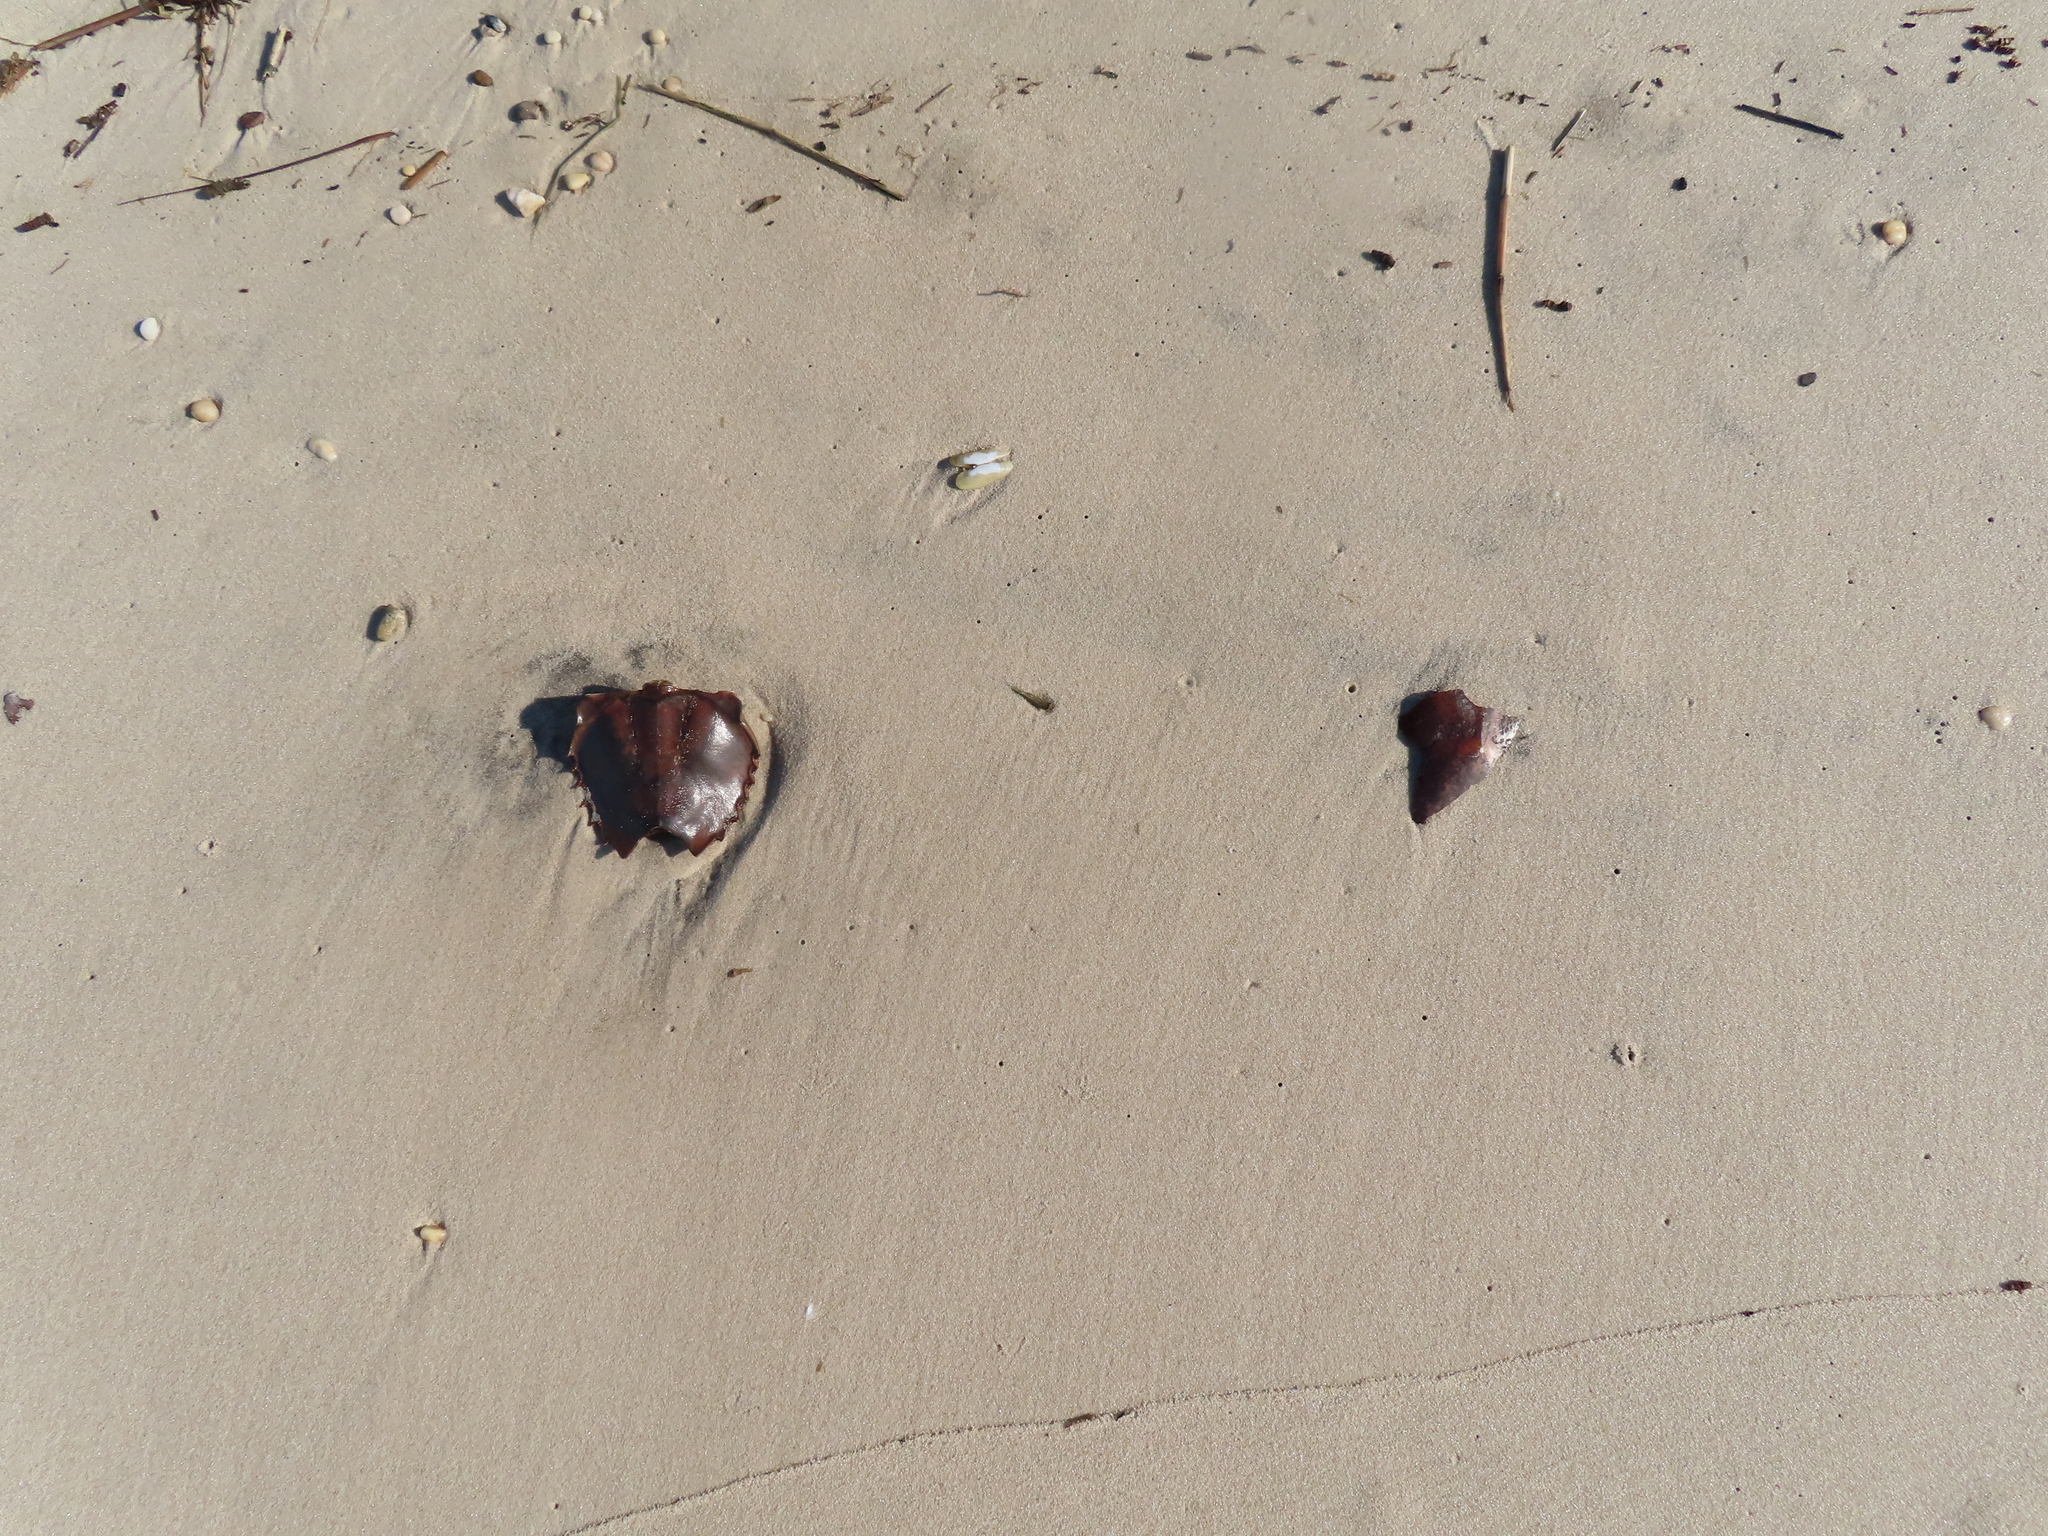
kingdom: Animalia
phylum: Arthropoda
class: Merostomata
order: Xiphosurida
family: Limulidae
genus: Limulus
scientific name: Limulus polyphemus
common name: Horseshoe crab
